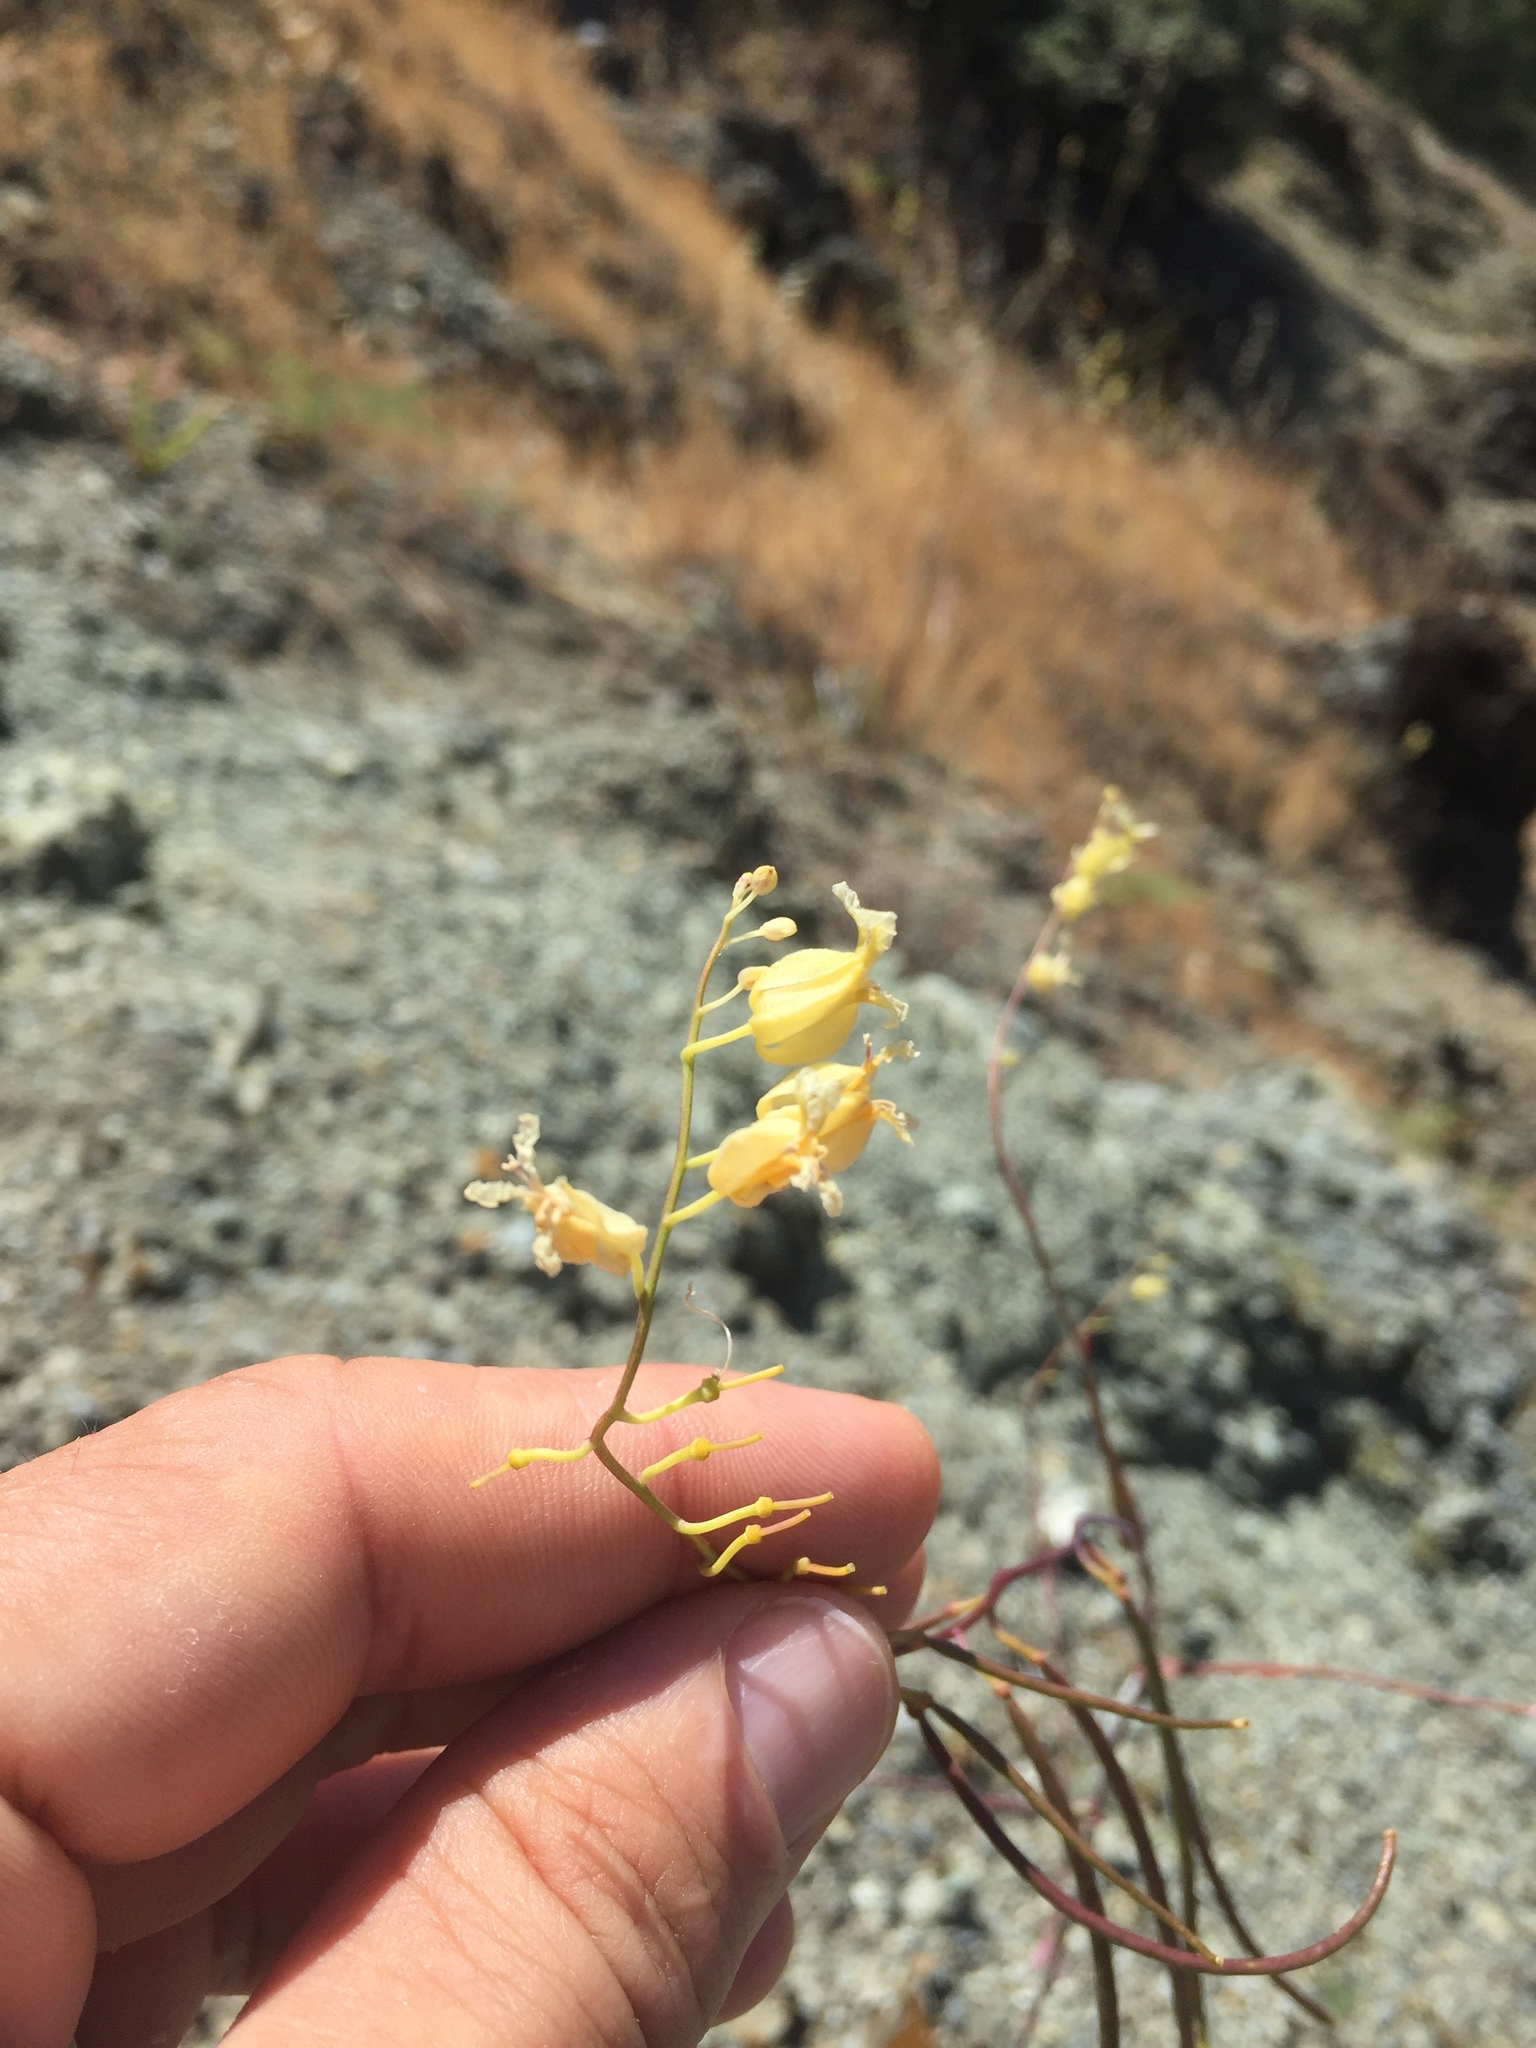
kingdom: Plantae
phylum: Tracheophyta
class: Magnoliopsida
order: Brassicales
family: Brassicaceae
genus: Streptanthus
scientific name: Streptanthus glandulosus
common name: Jewel-flower
